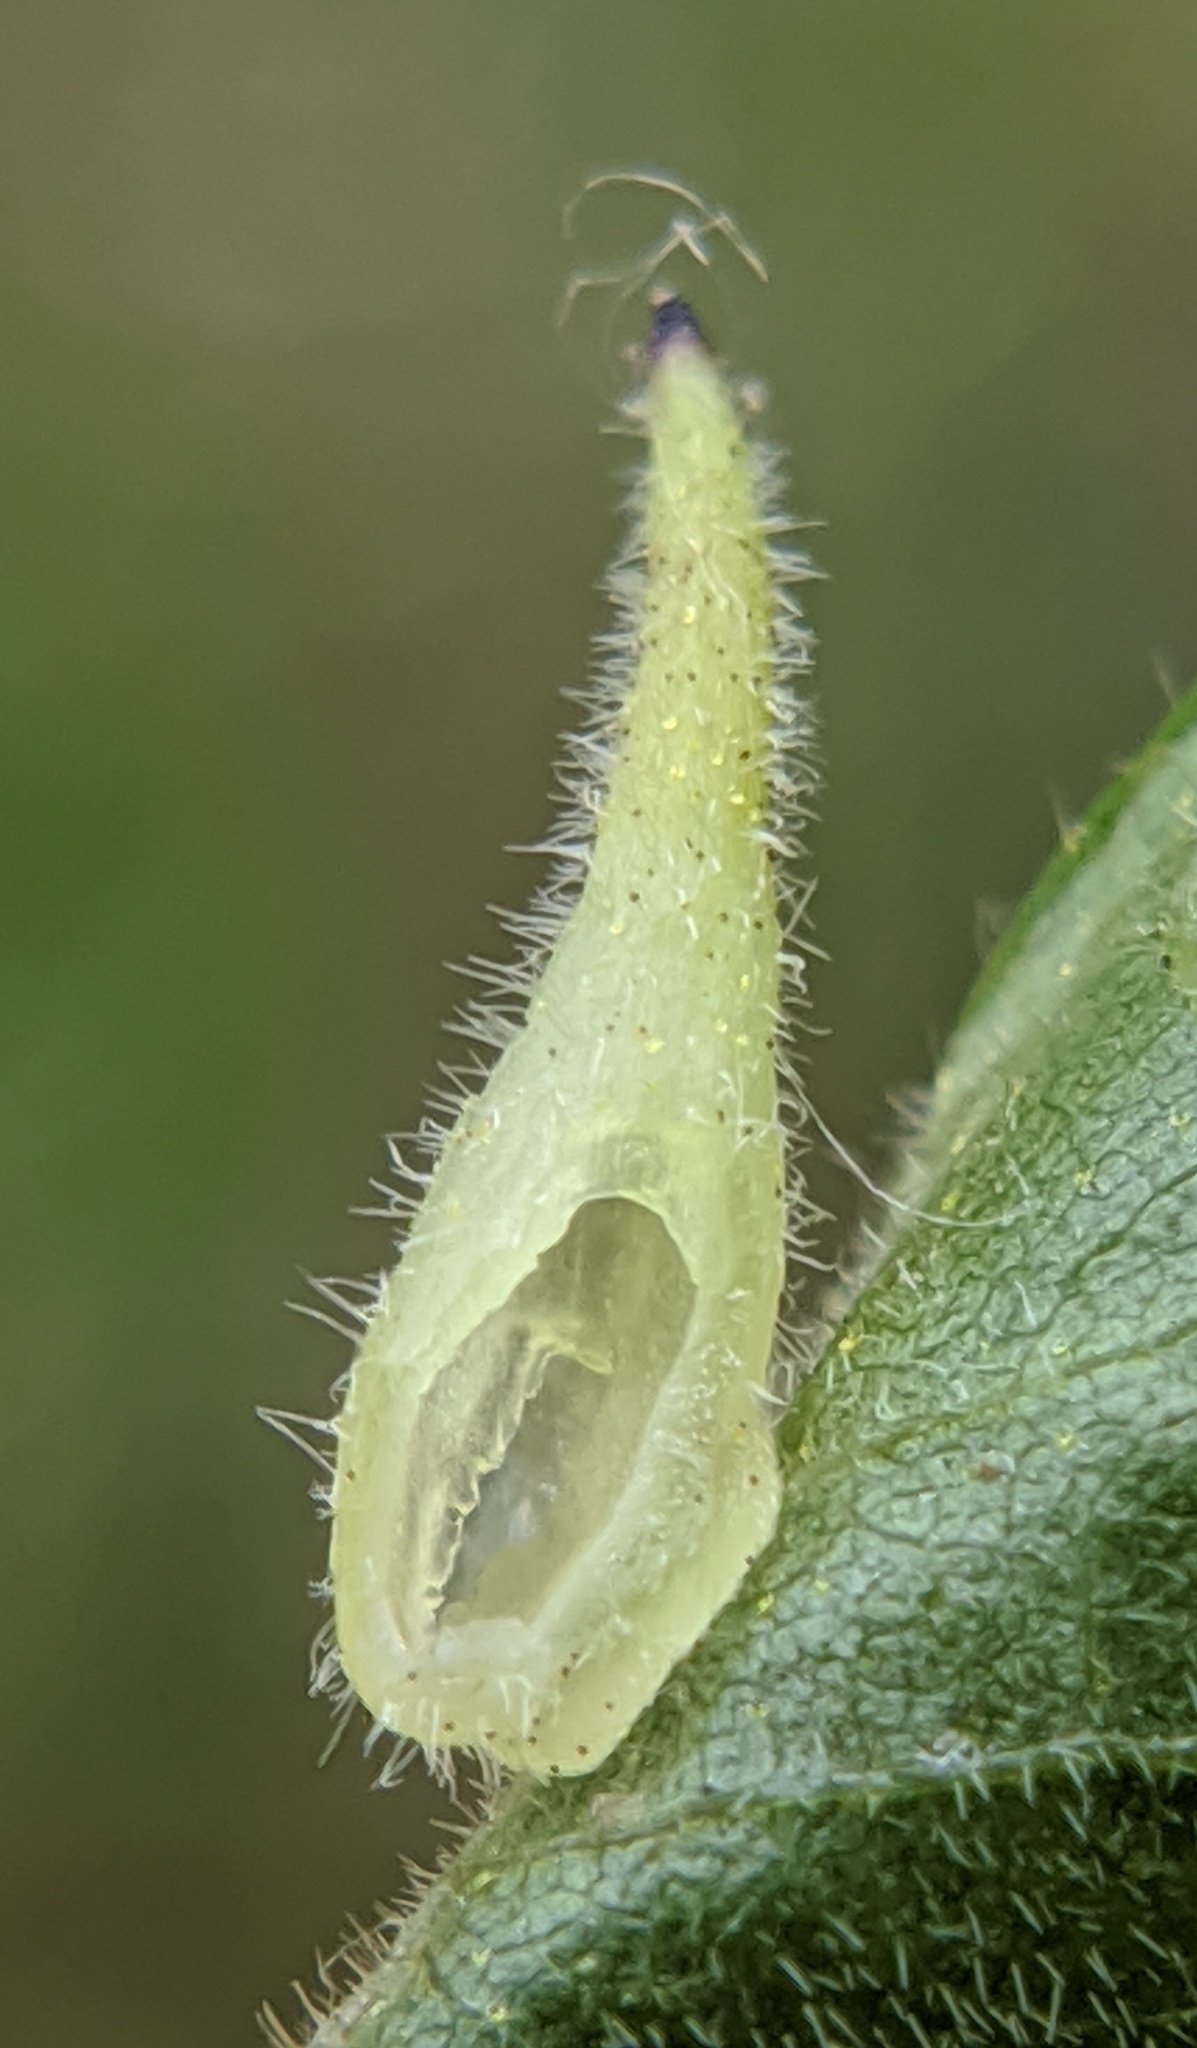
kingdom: Animalia
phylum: Arthropoda
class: Insecta
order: Diptera
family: Cecidomyiidae
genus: Caryomyia
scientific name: Caryomyia spinulosa
